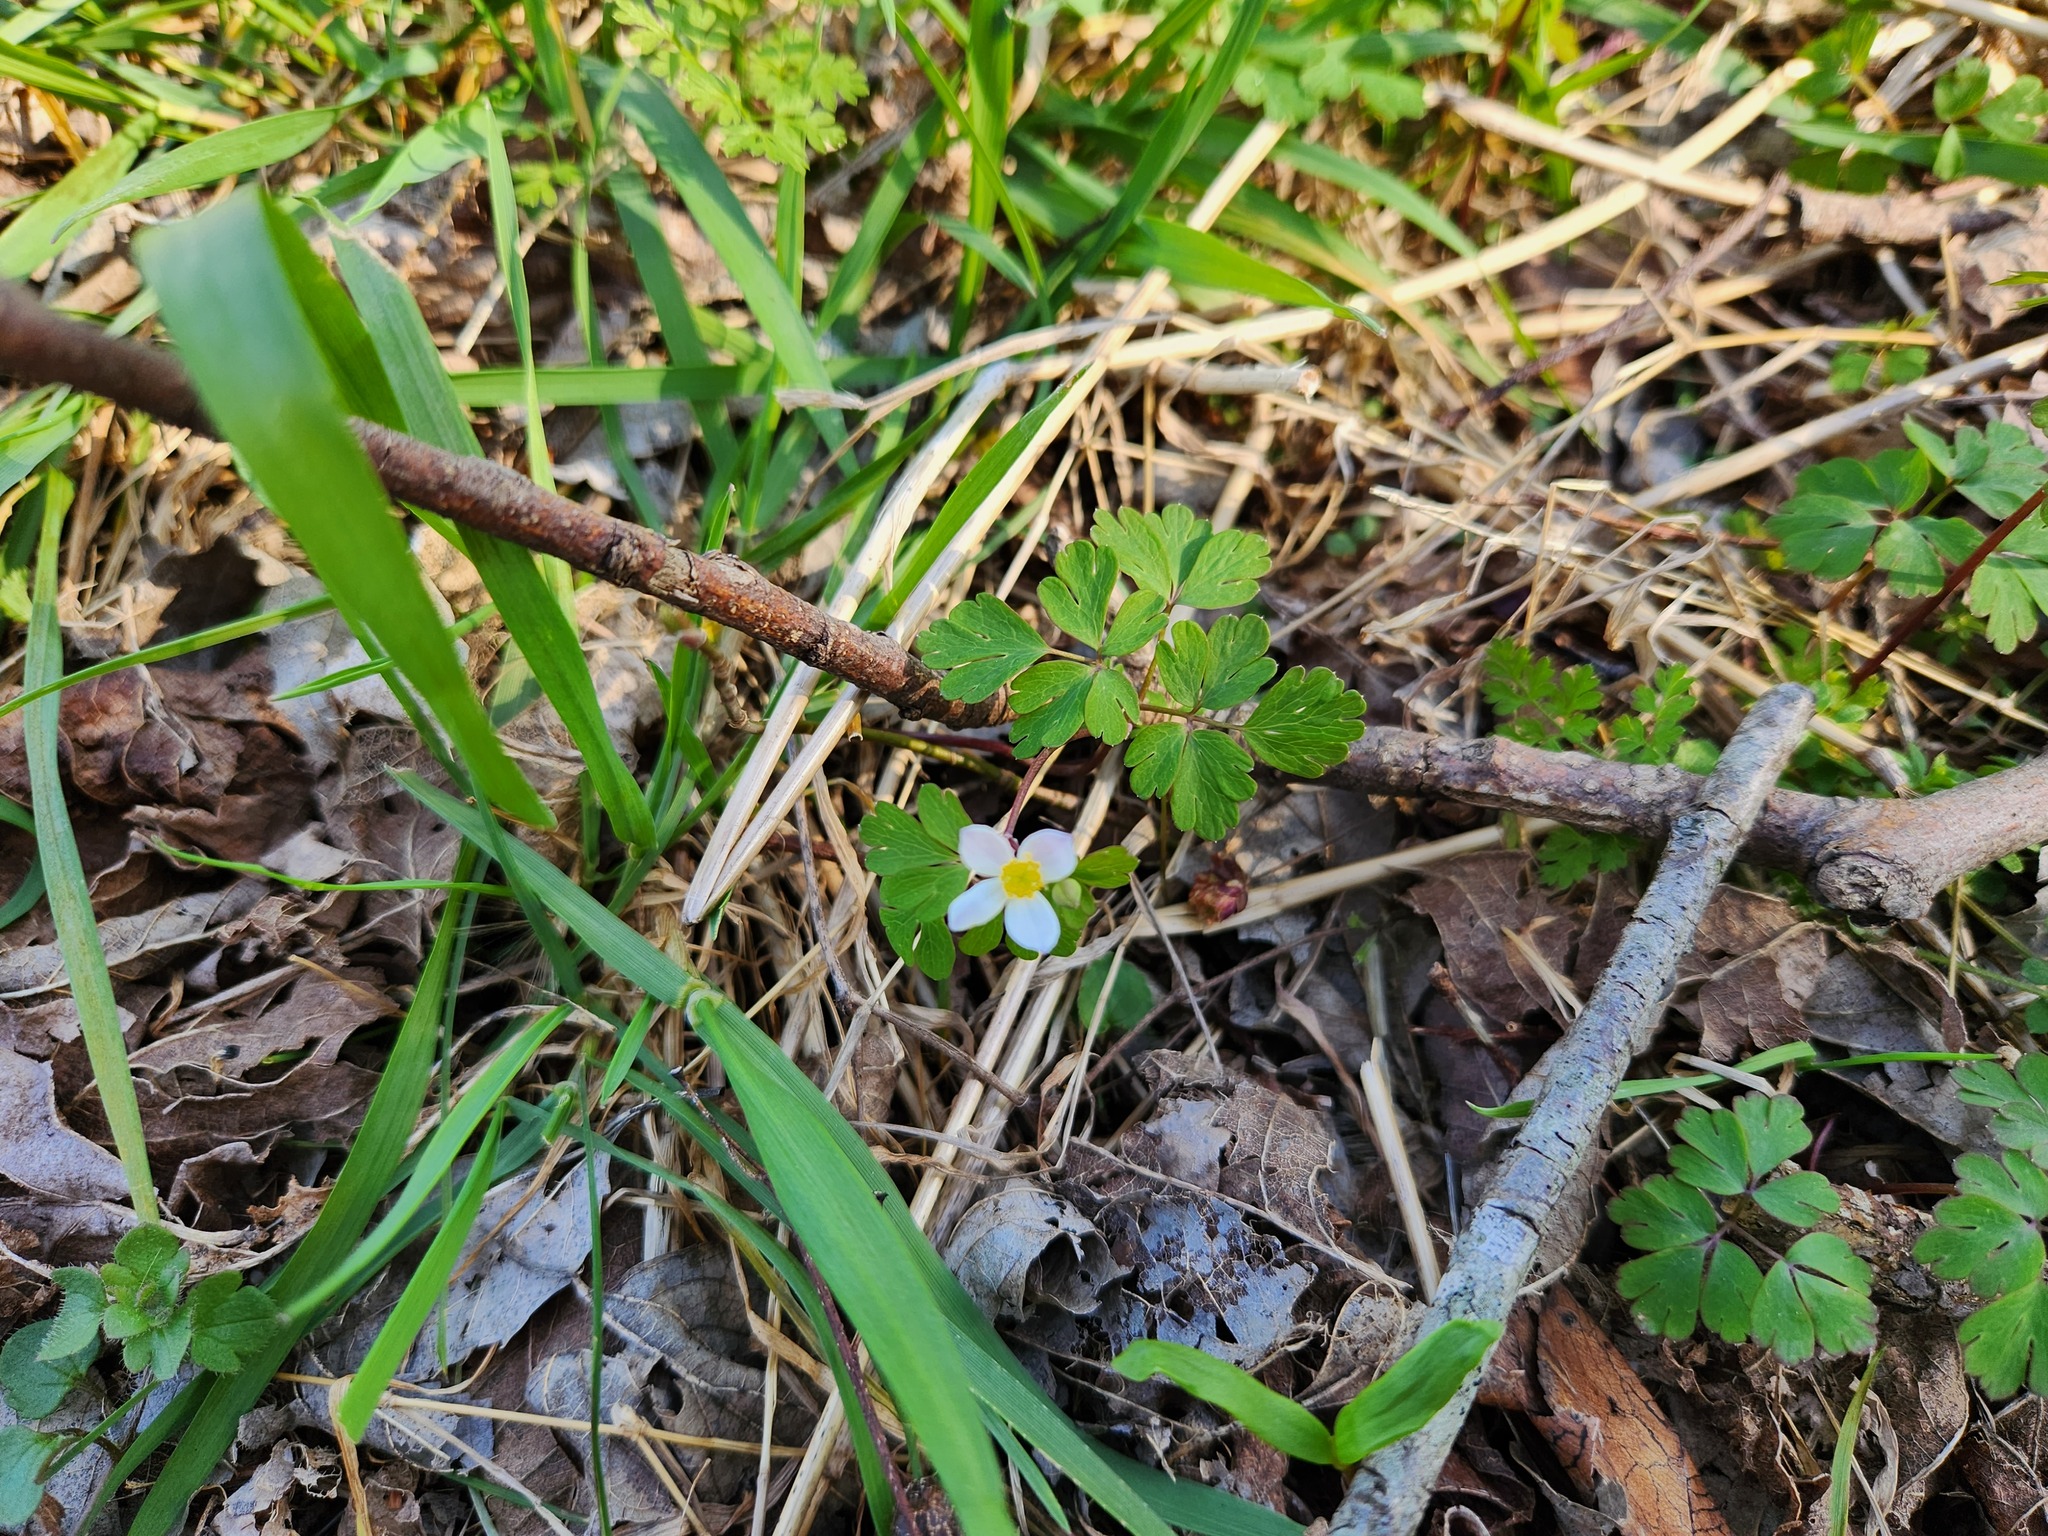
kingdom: Plantae
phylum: Tracheophyta
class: Magnoliopsida
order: Ranunculales
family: Ranunculaceae
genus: Enemion
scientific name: Enemion biternatum
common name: Eastern false rue-anemone
